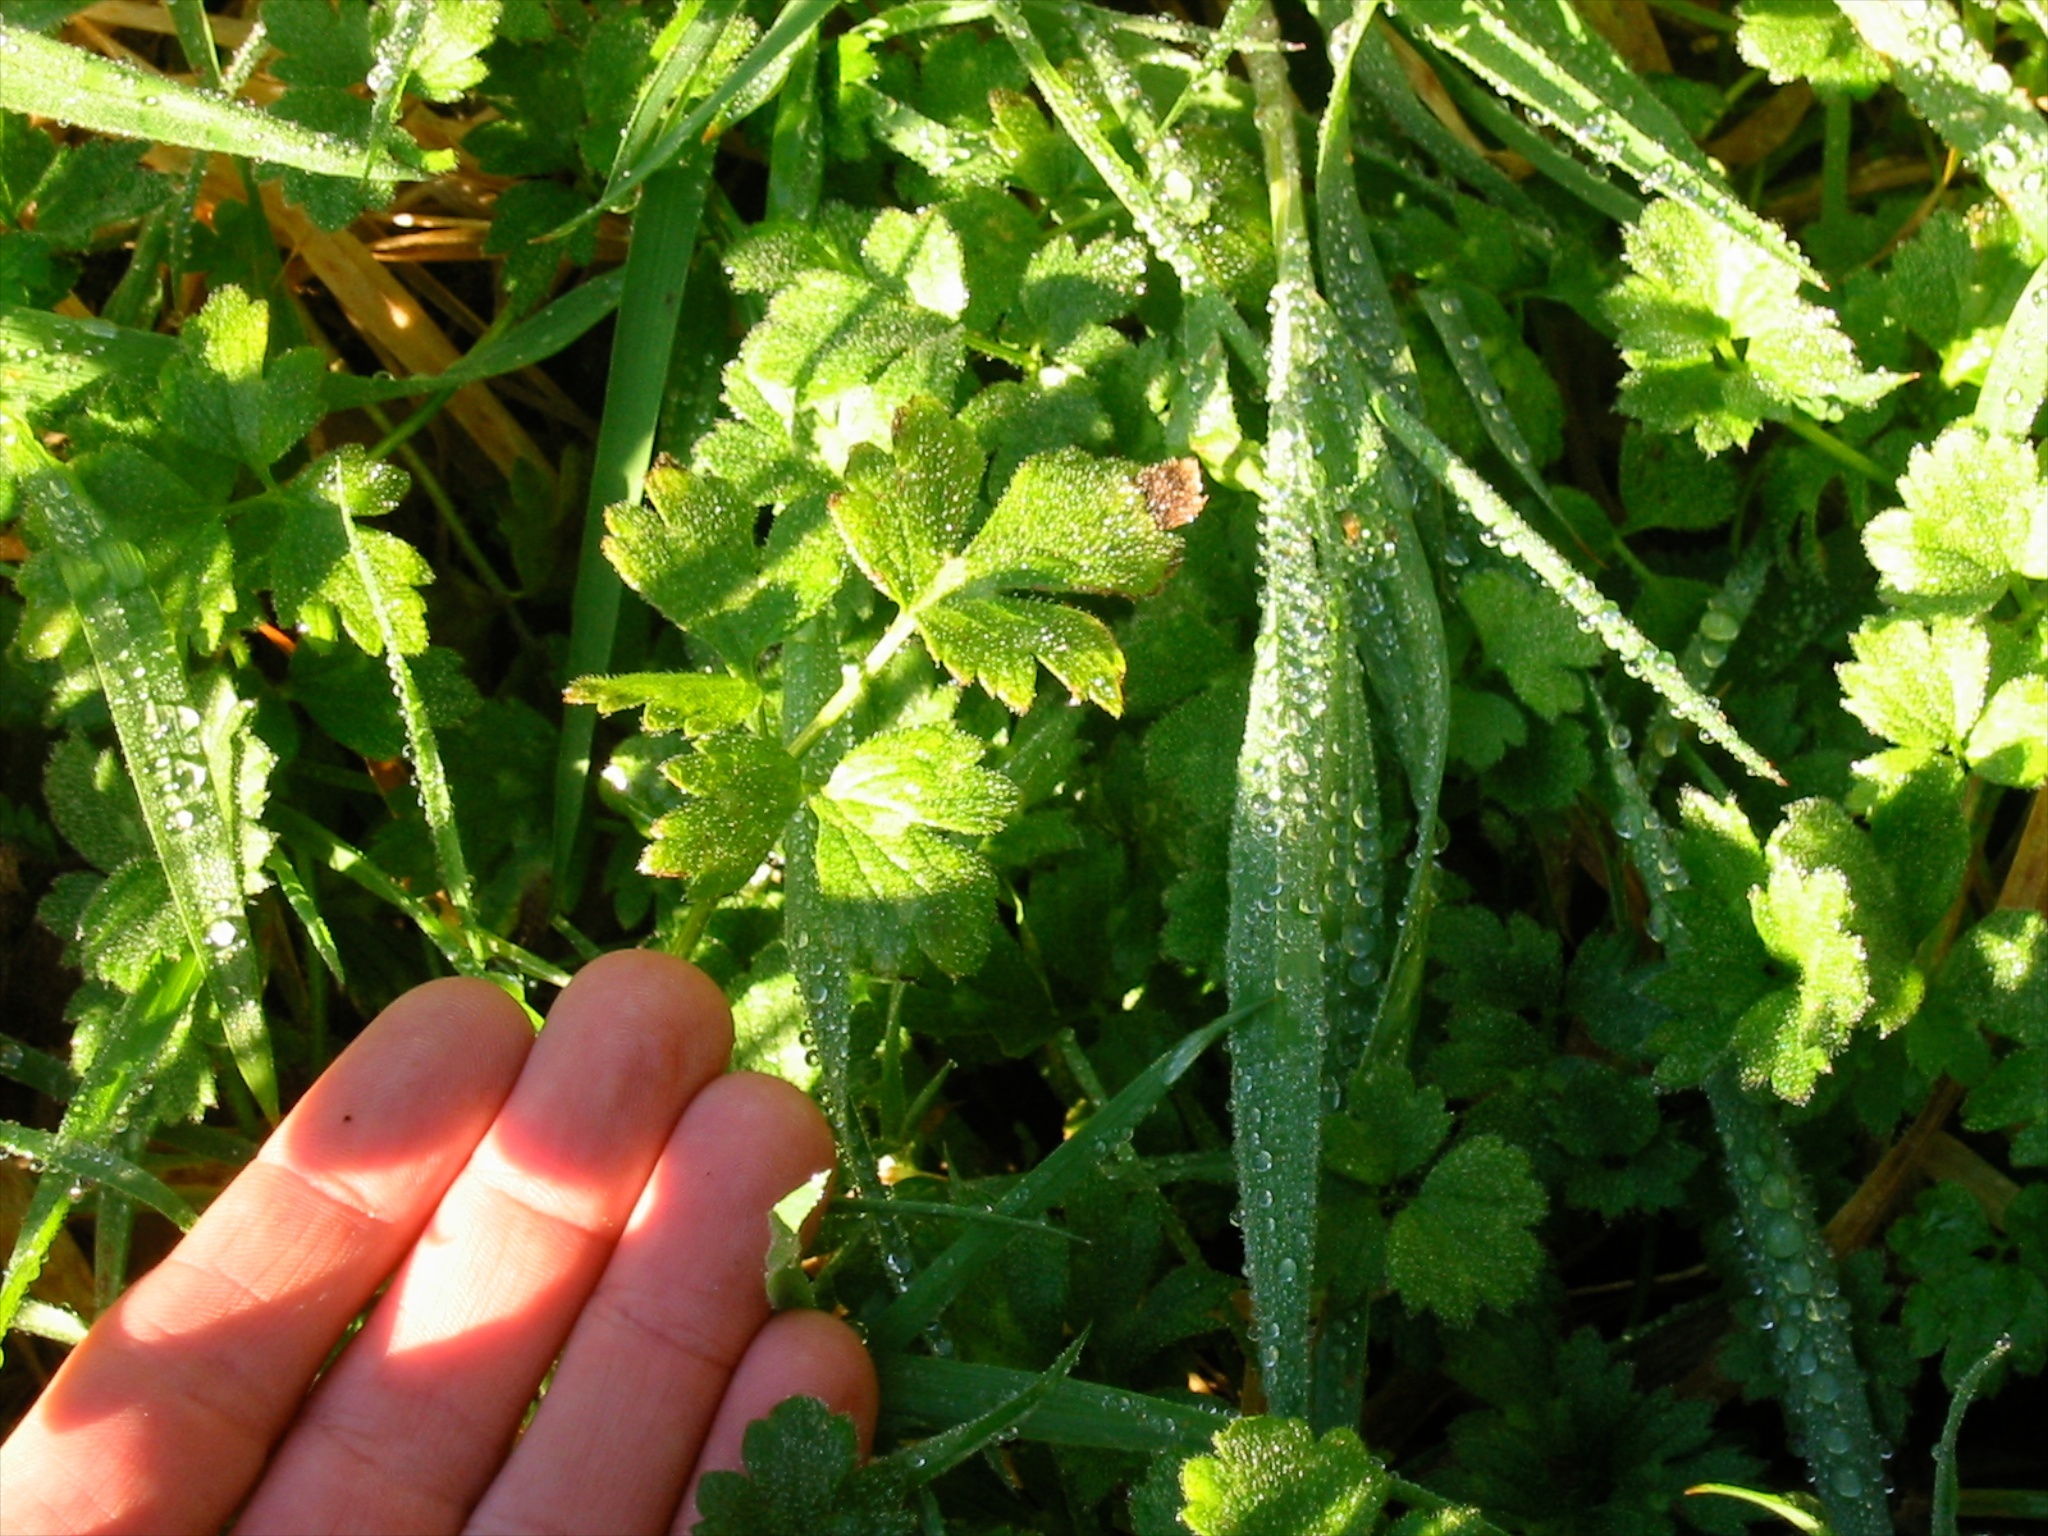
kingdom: Plantae
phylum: Tracheophyta
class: Magnoliopsida
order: Ranunculales
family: Ranunculaceae
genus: Ranunculus
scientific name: Ranunculus repens
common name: Creeping buttercup
